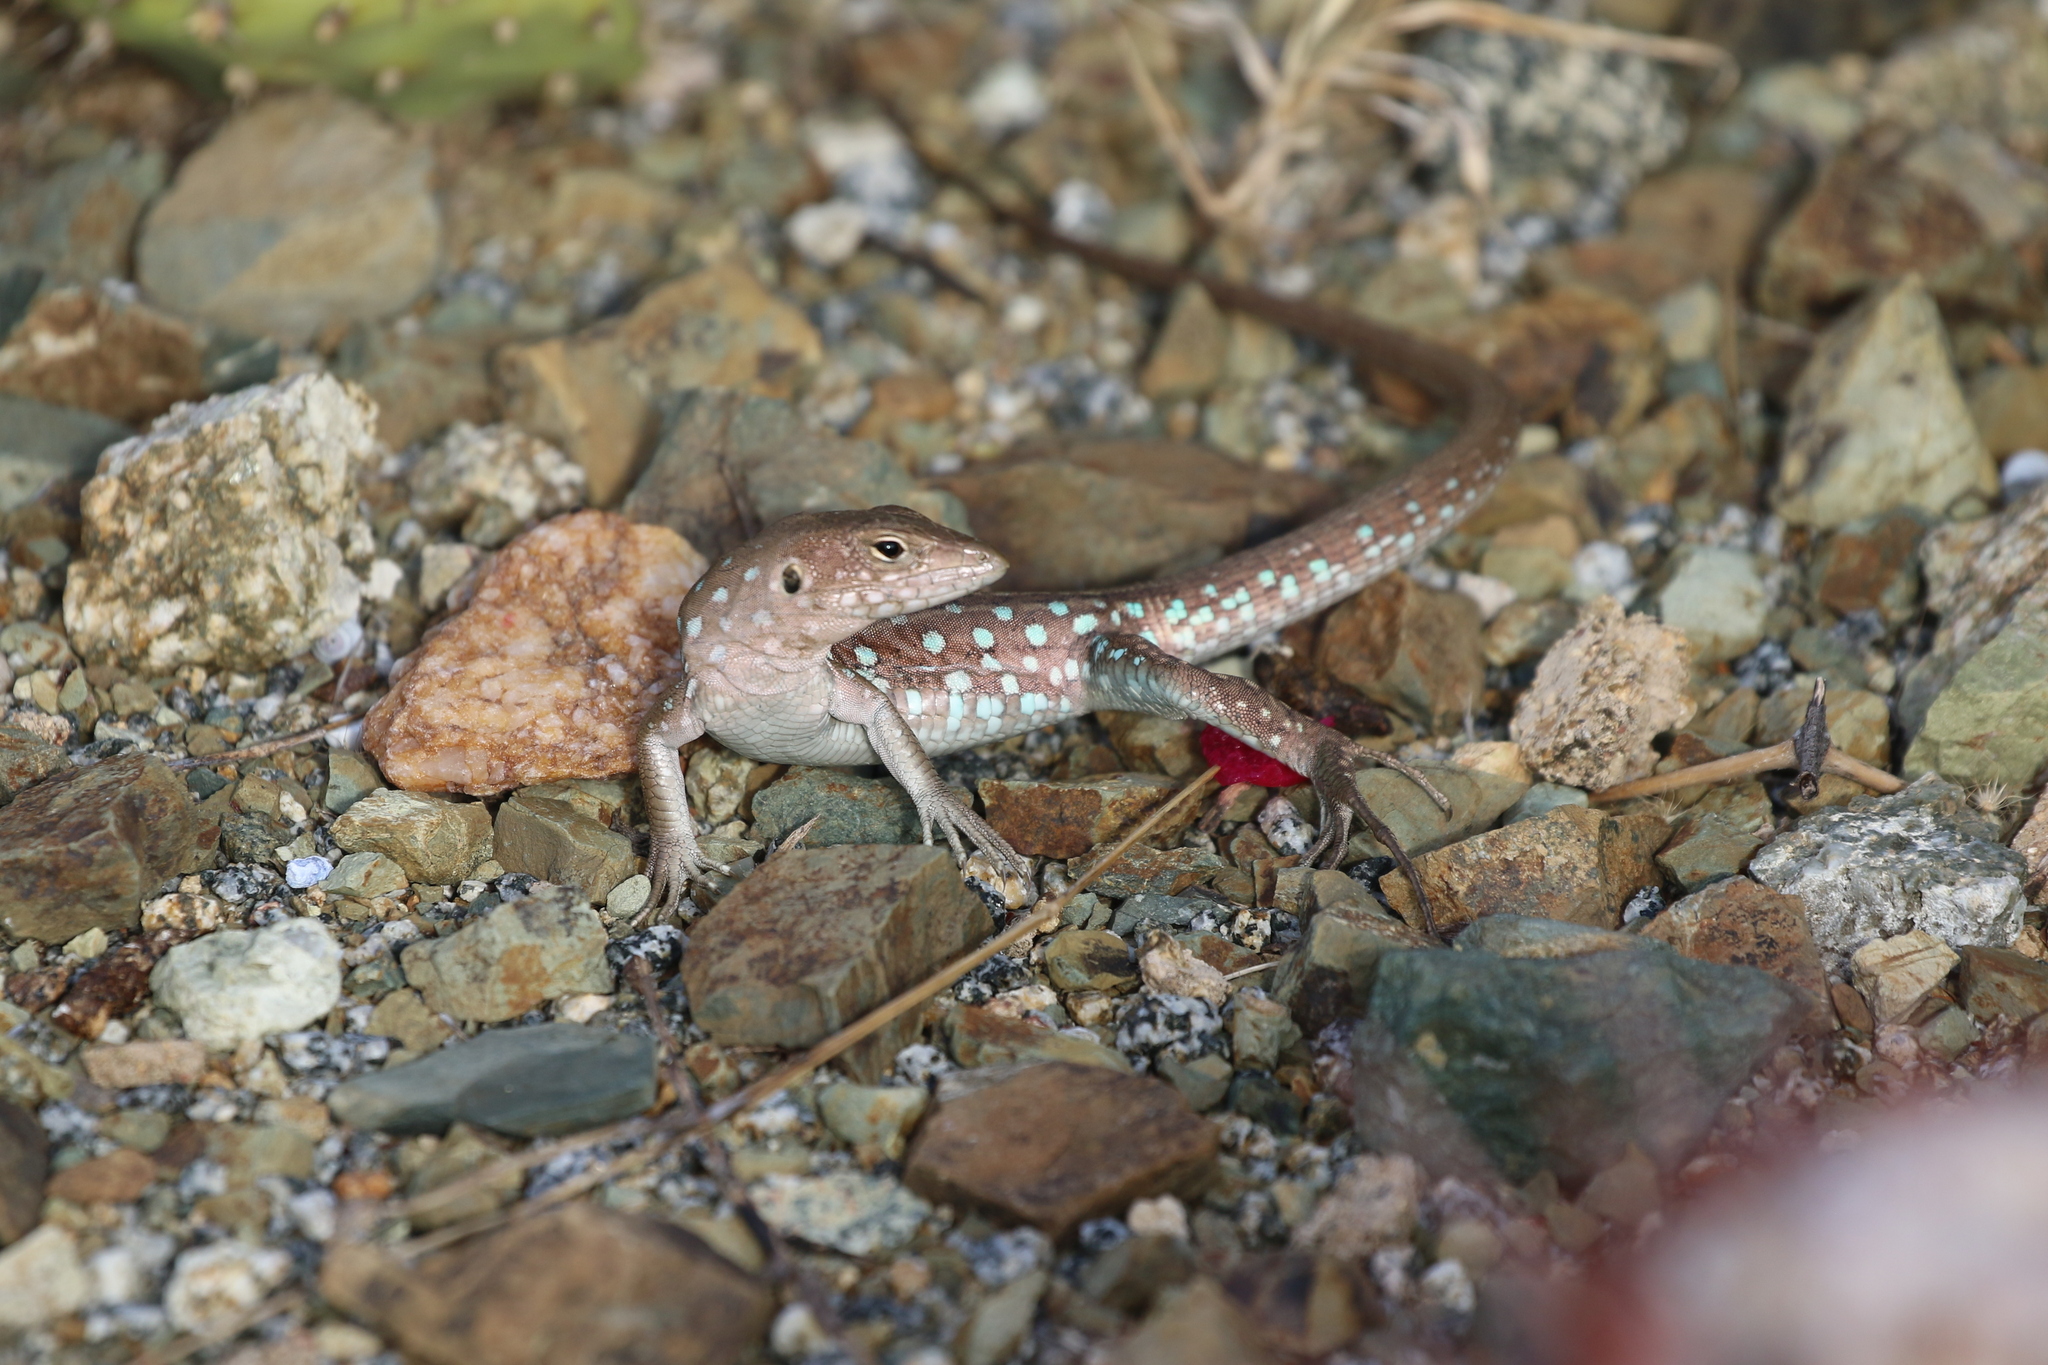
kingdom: Animalia
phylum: Chordata
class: Squamata
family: Teiidae
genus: Cnemidophorus
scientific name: Cnemidophorus arubensis
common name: Aruba whiptail
